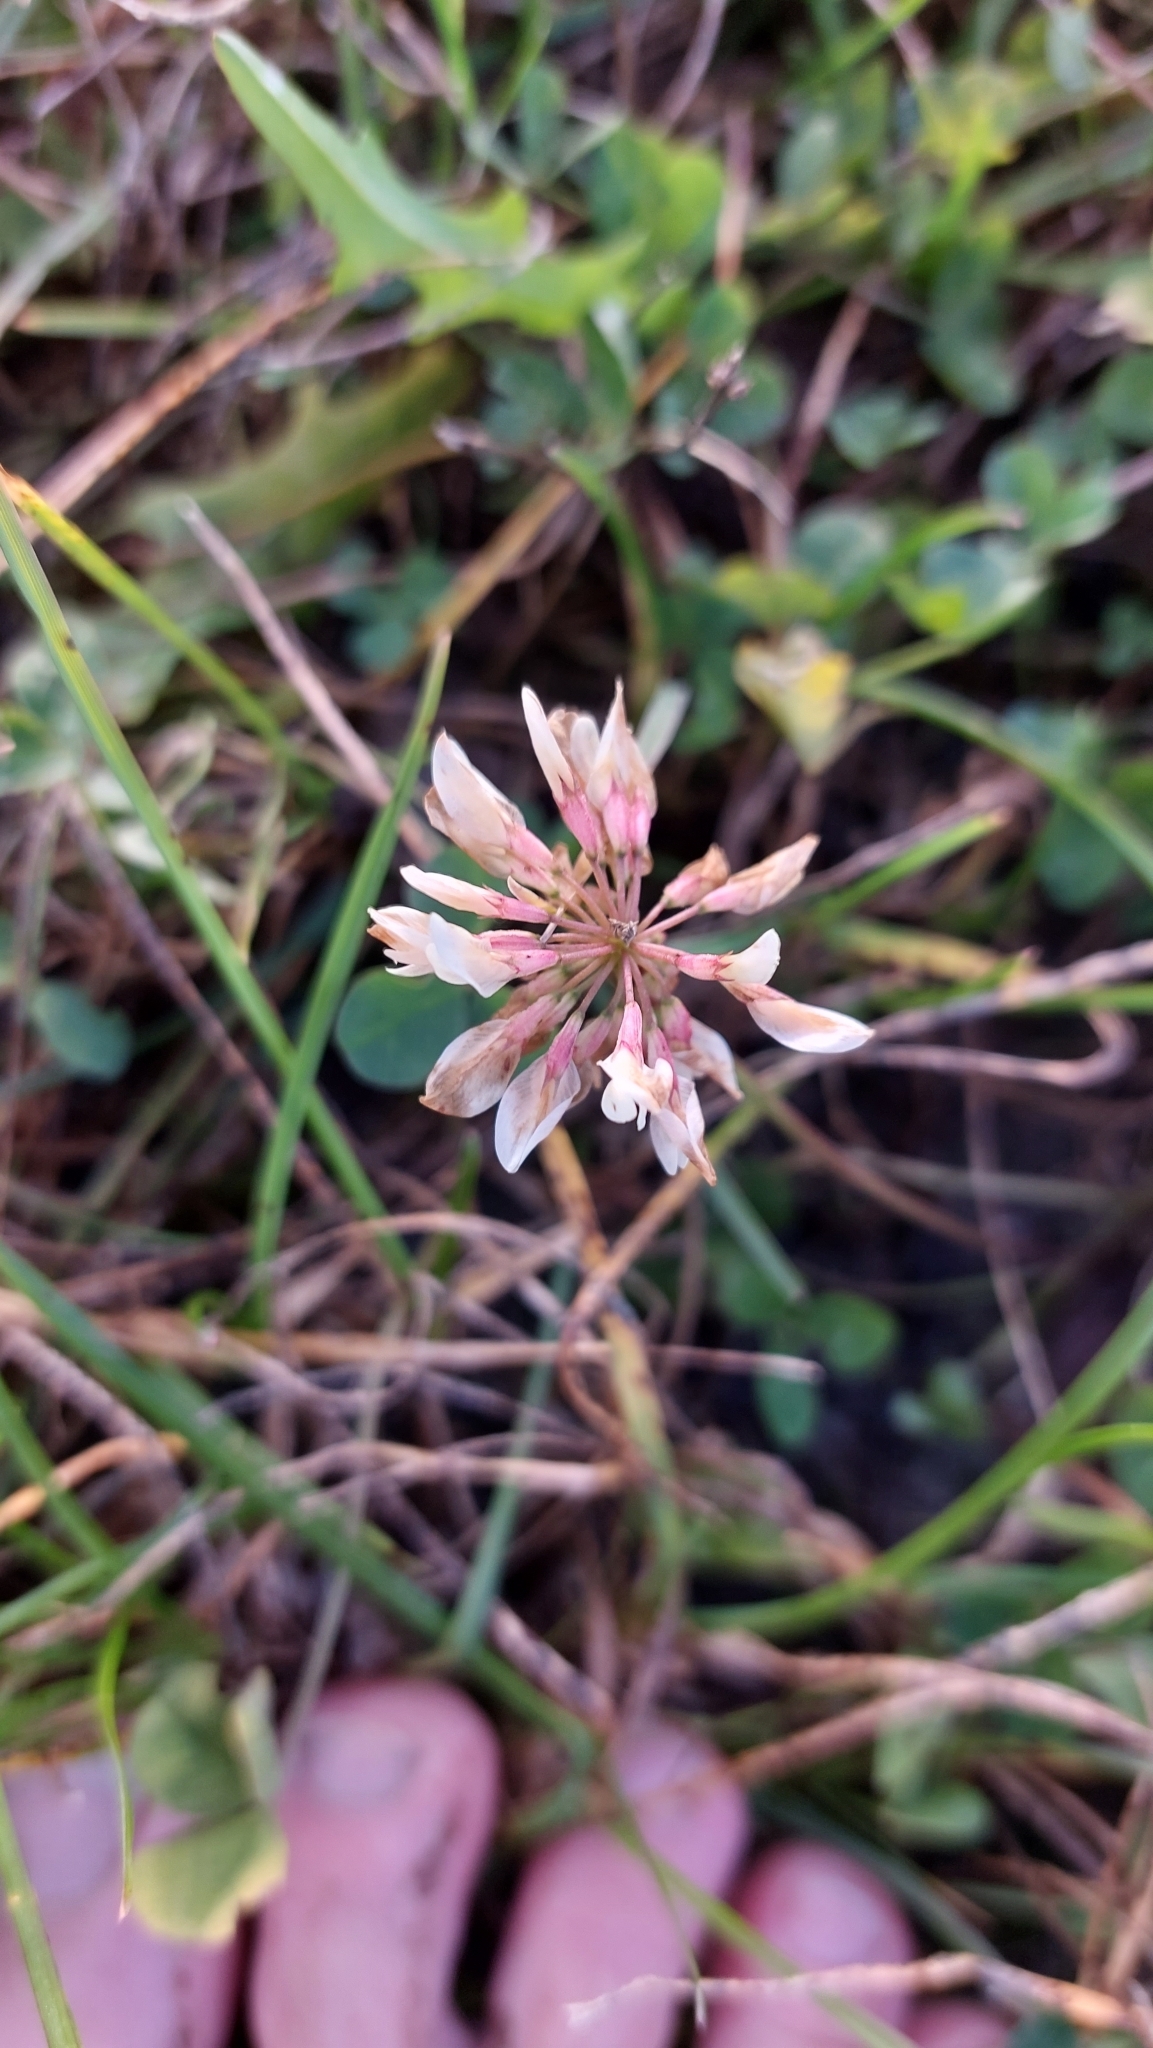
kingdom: Plantae
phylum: Tracheophyta
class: Magnoliopsida
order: Fabales
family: Fabaceae
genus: Trifolium
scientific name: Trifolium repens
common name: White clover
